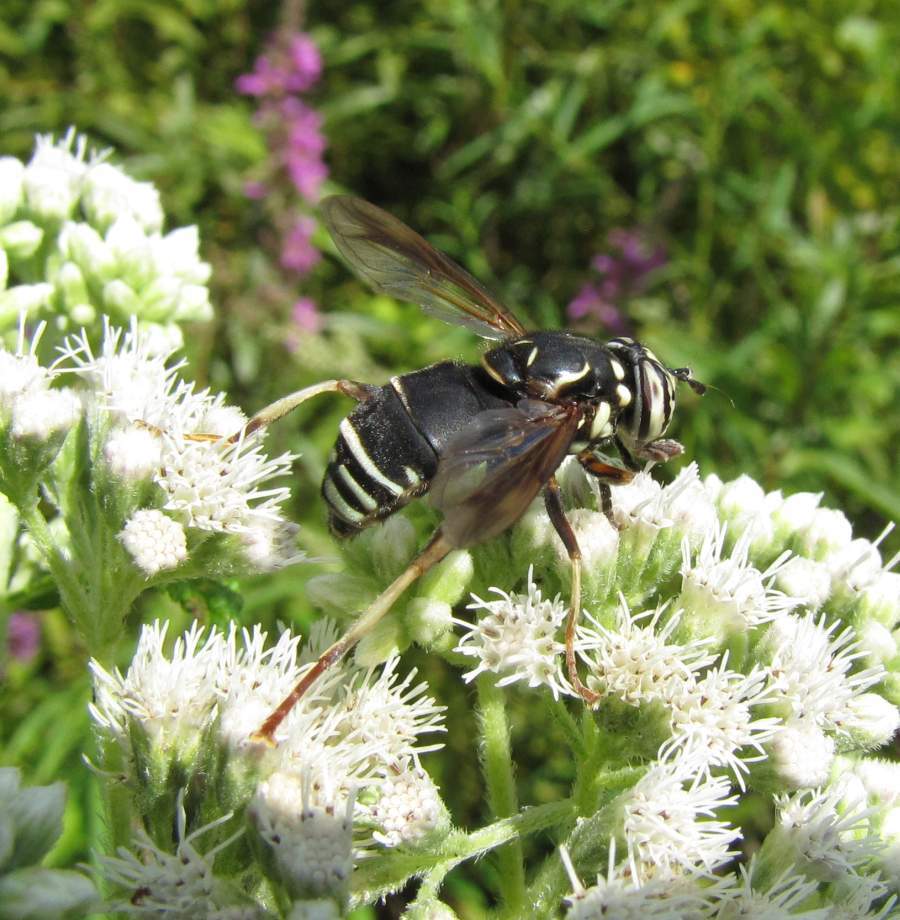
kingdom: Animalia
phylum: Arthropoda
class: Insecta
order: Diptera
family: Syrphidae
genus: Spilomyia
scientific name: Spilomyia fusca
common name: Bald-faced hornet fly
